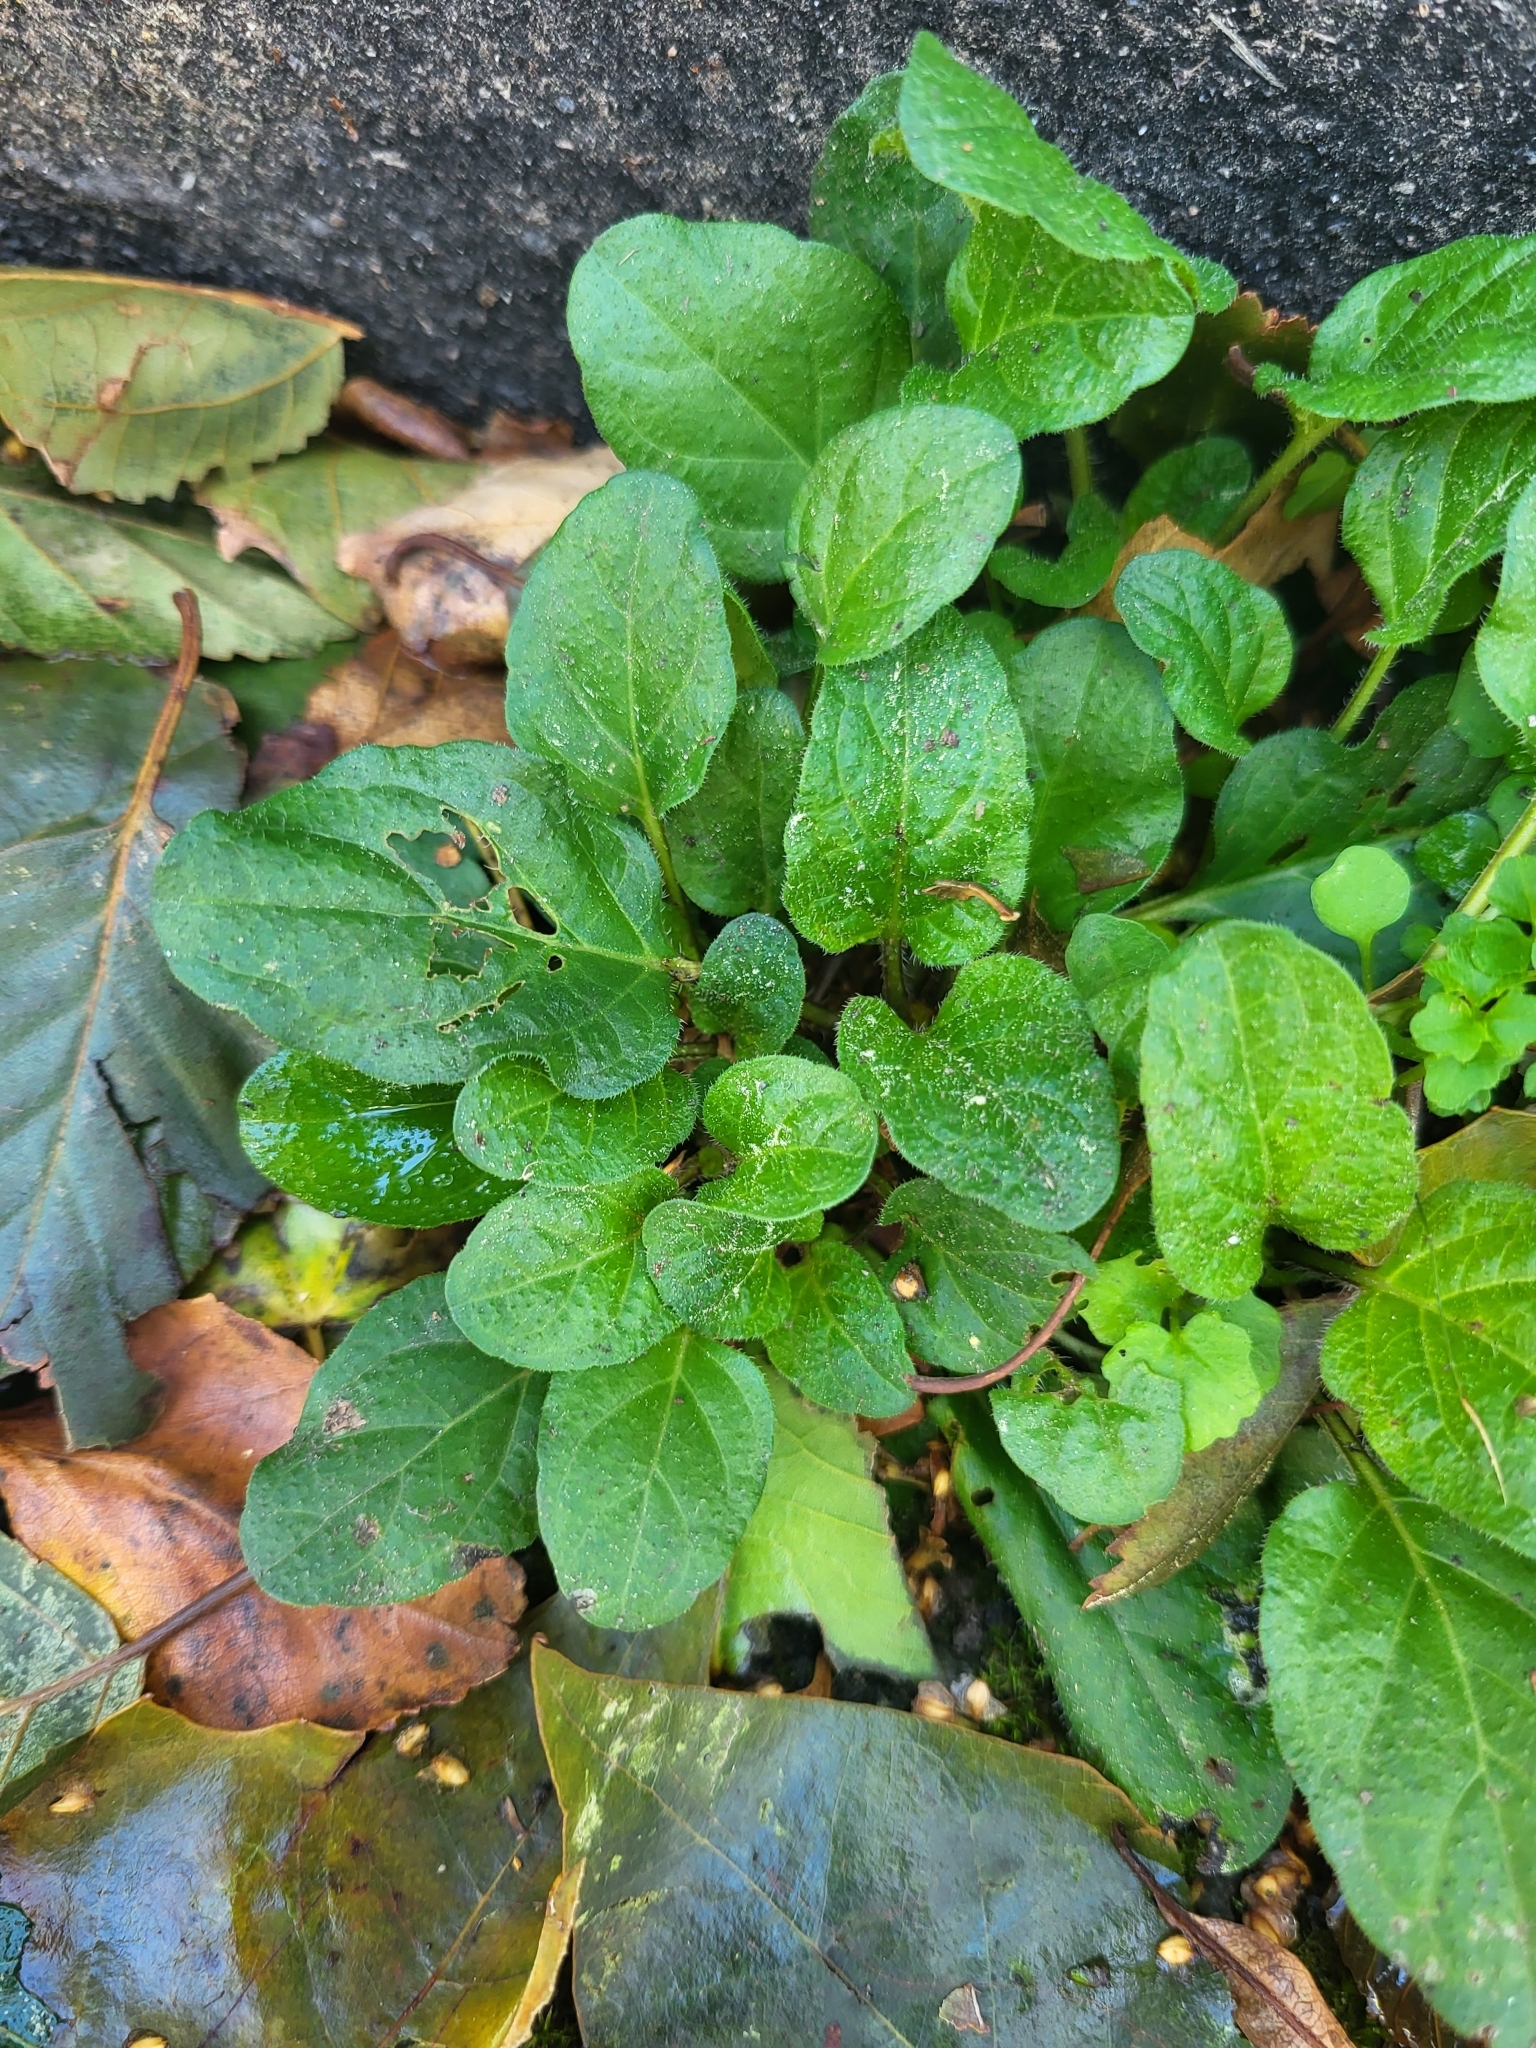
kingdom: Plantae
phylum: Tracheophyta
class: Magnoliopsida
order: Lamiales
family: Lamiaceae
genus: Prunella
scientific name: Prunella vulgaris
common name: Heal-all
